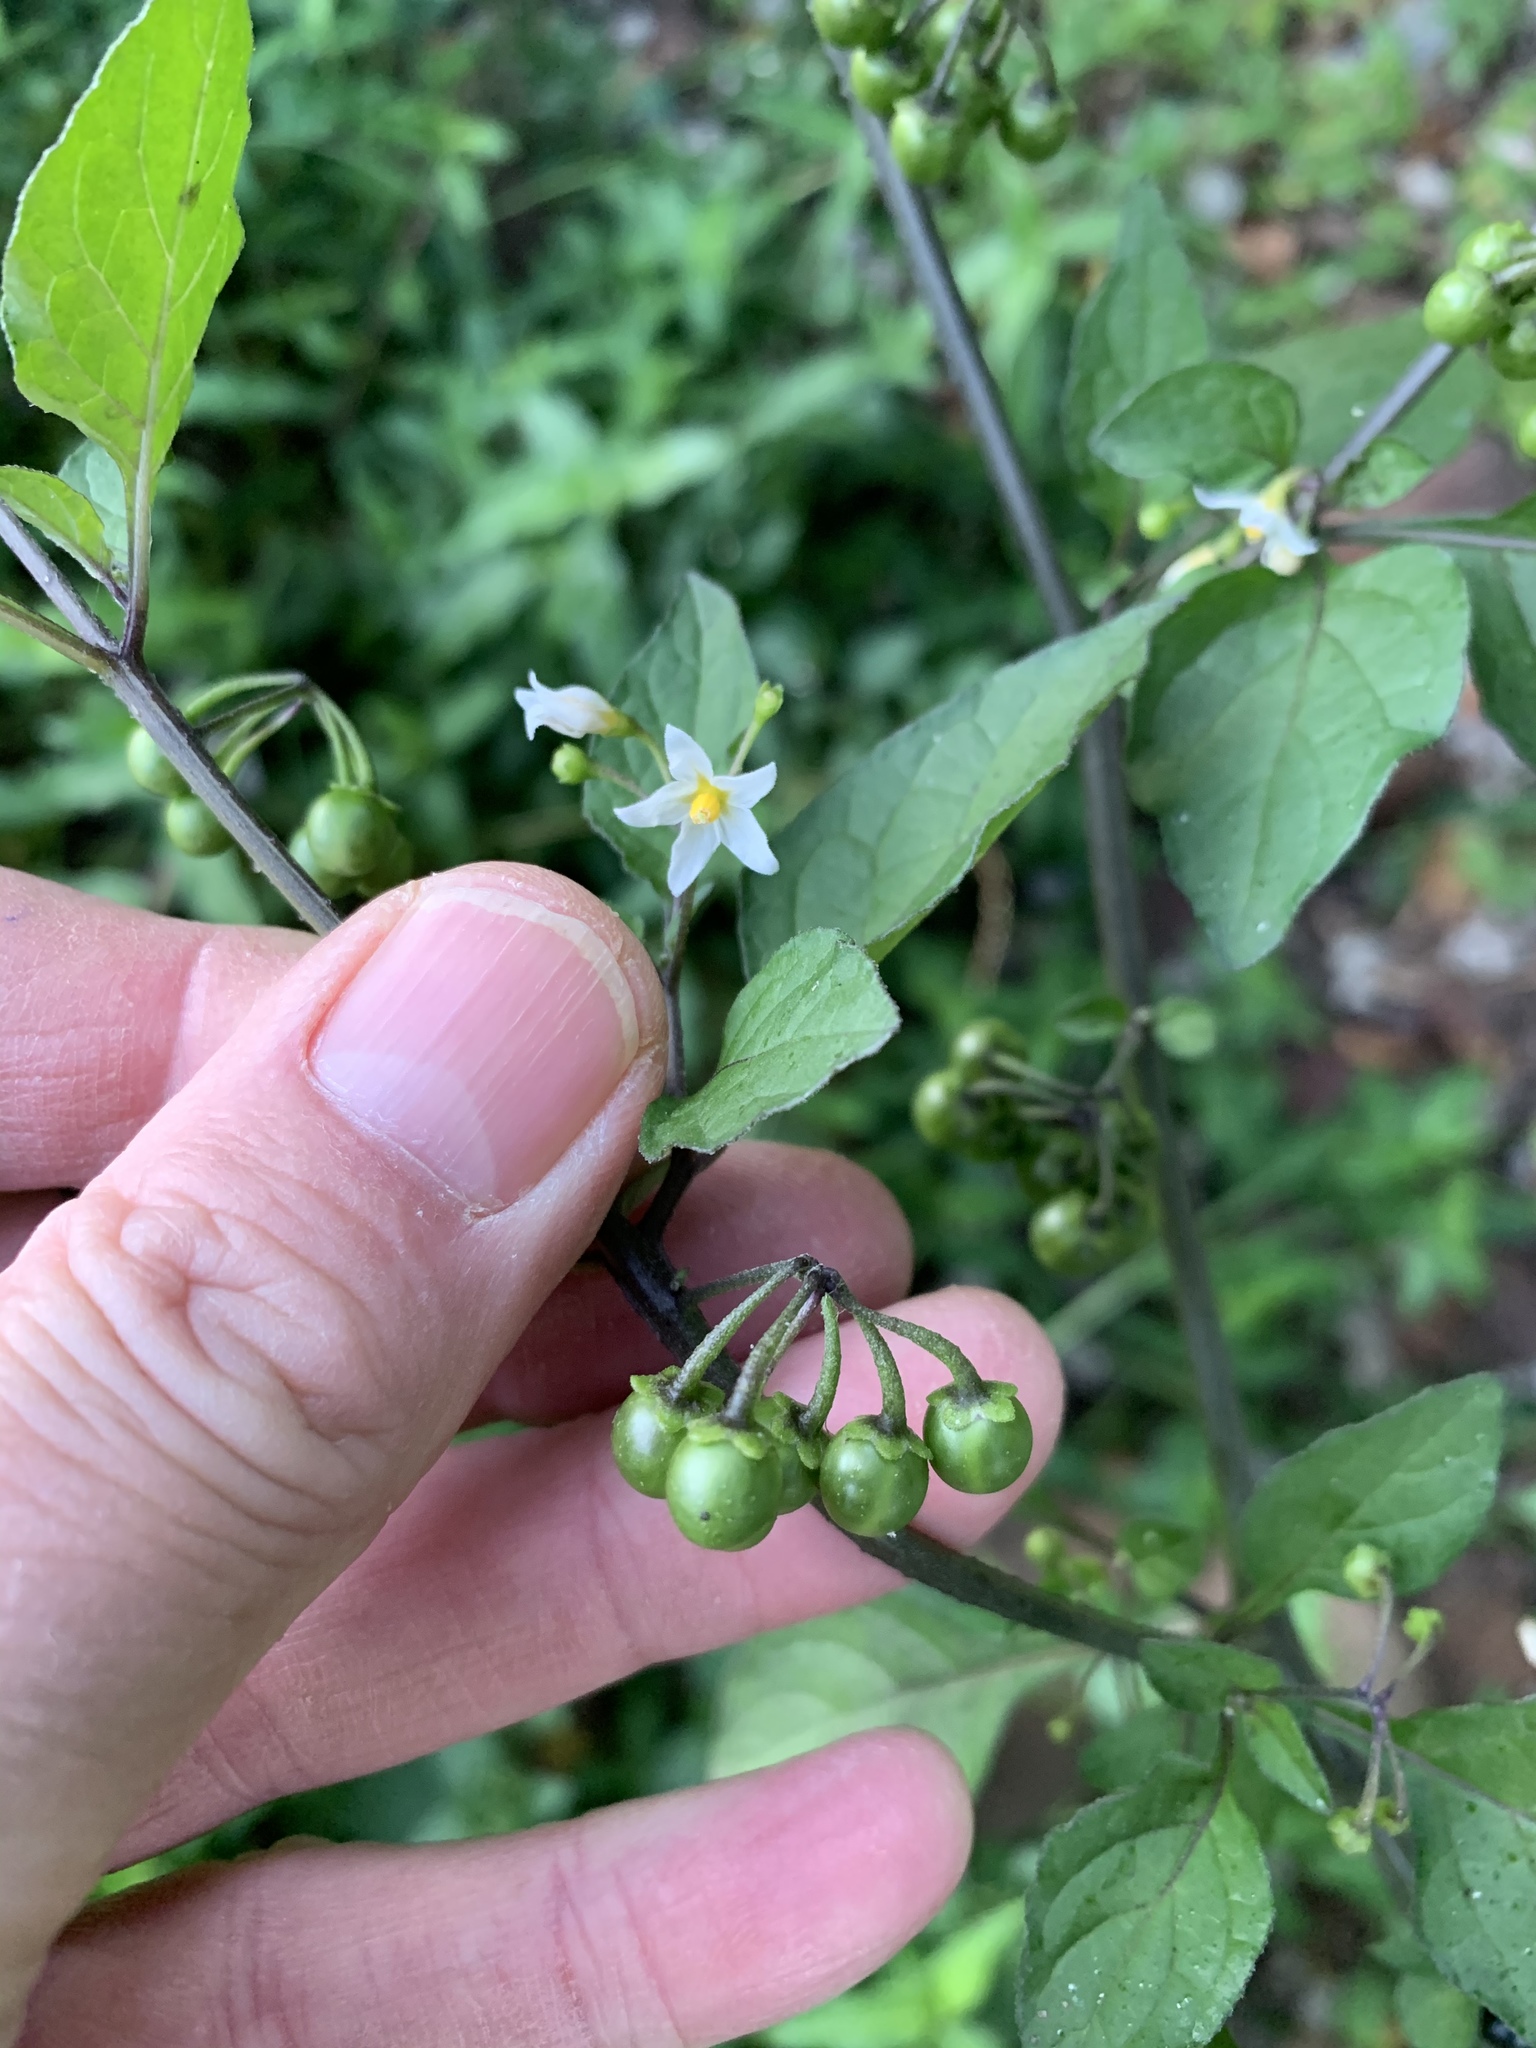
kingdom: Plantae
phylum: Tracheophyta
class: Magnoliopsida
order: Solanales
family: Solanaceae
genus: Solanum
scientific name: Solanum nigrum
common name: Black nightshade
